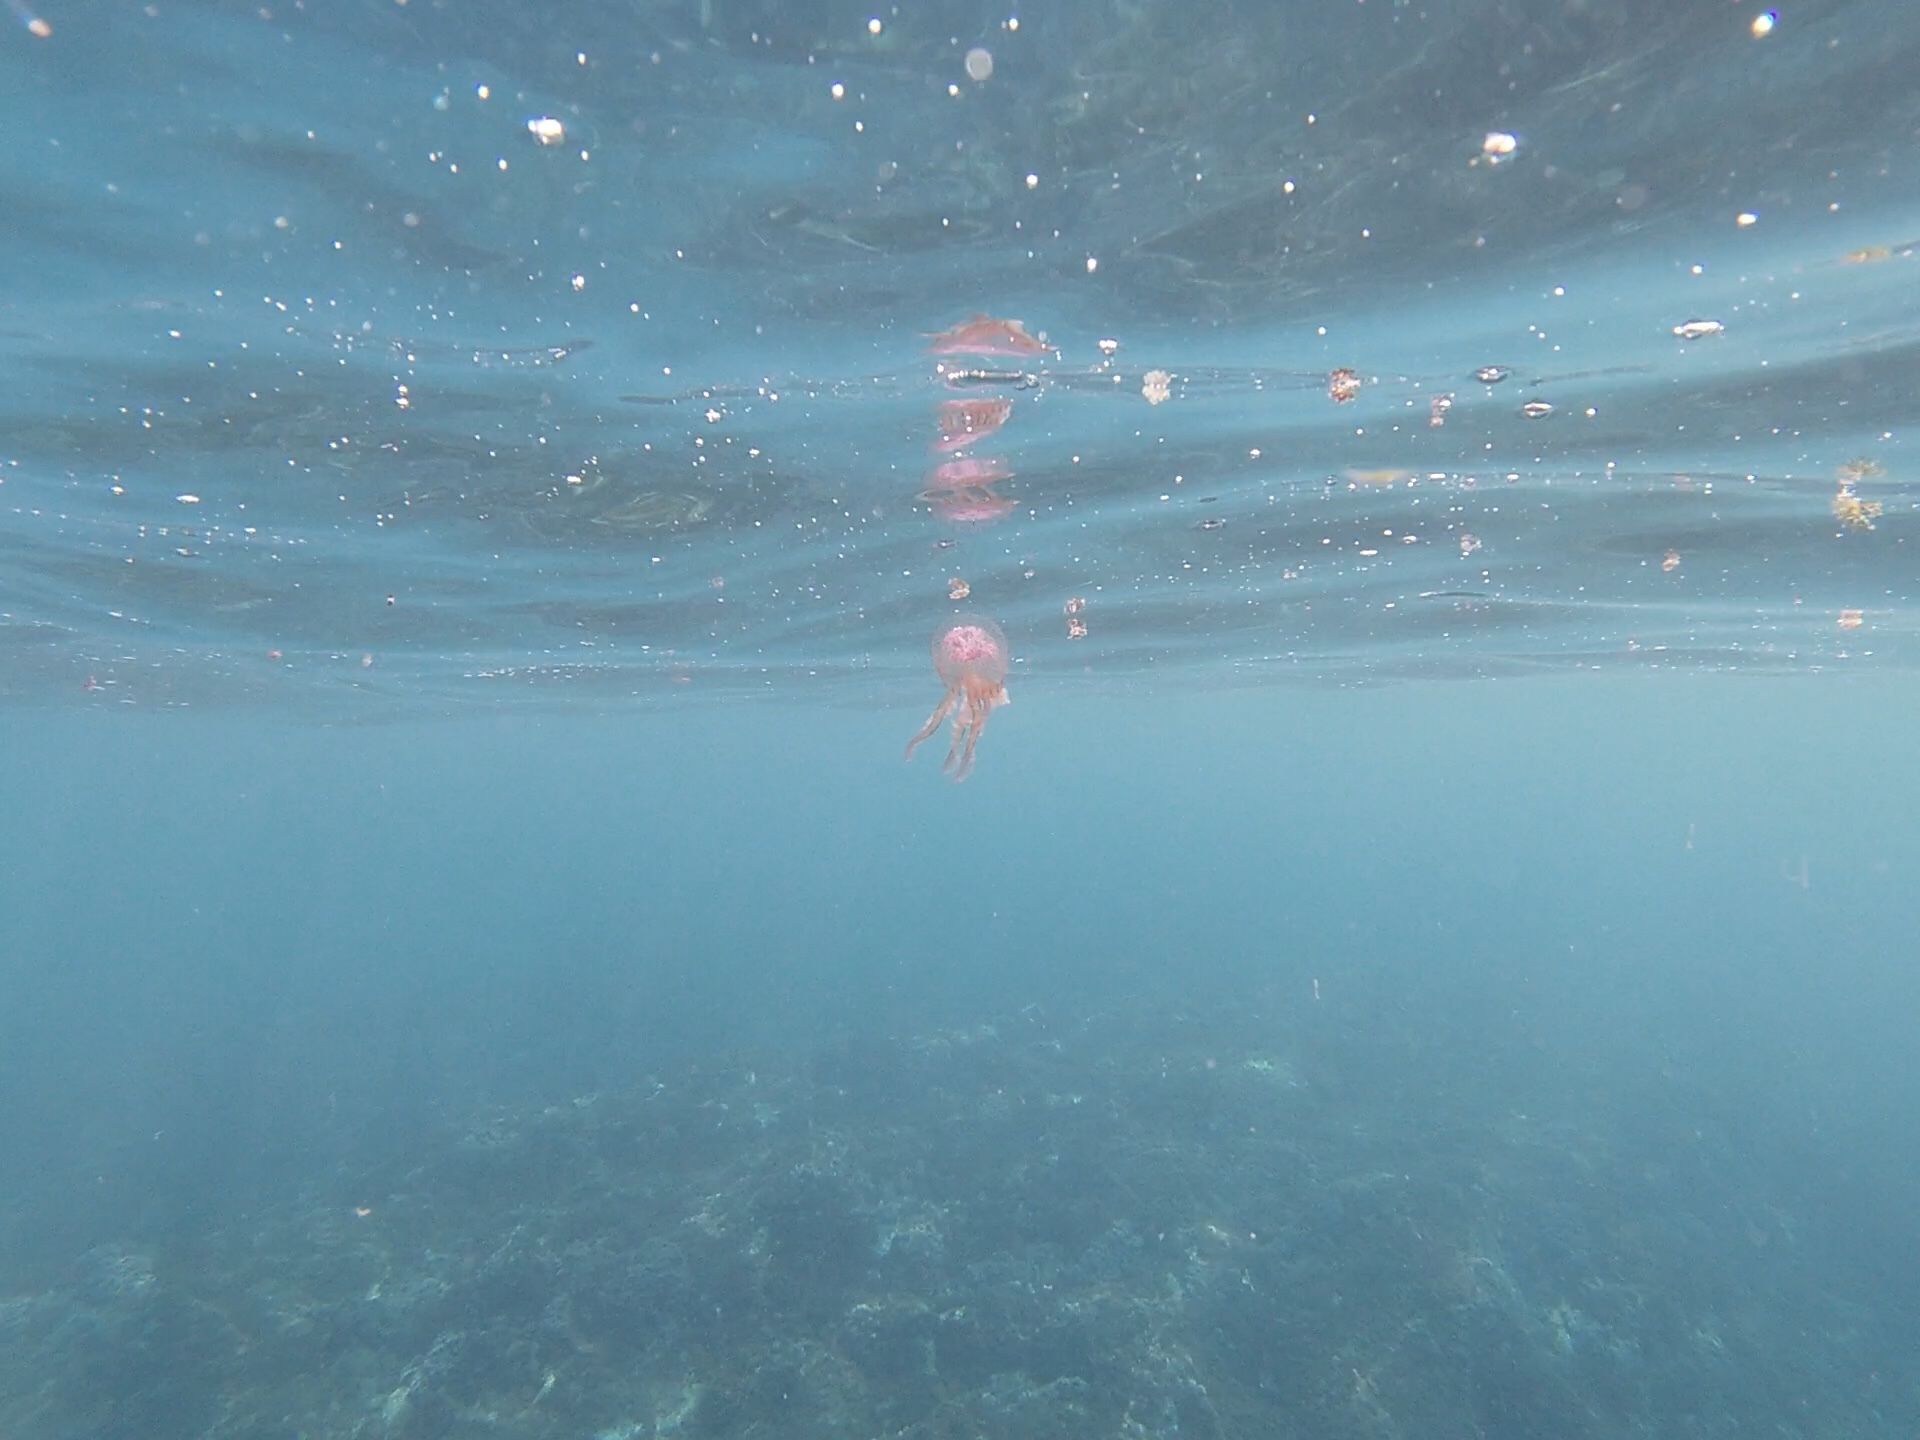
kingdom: Animalia
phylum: Cnidaria
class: Scyphozoa
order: Semaeostomeae
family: Pelagiidae
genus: Pelagia
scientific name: Pelagia noctiluca
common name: Mauve stinger
